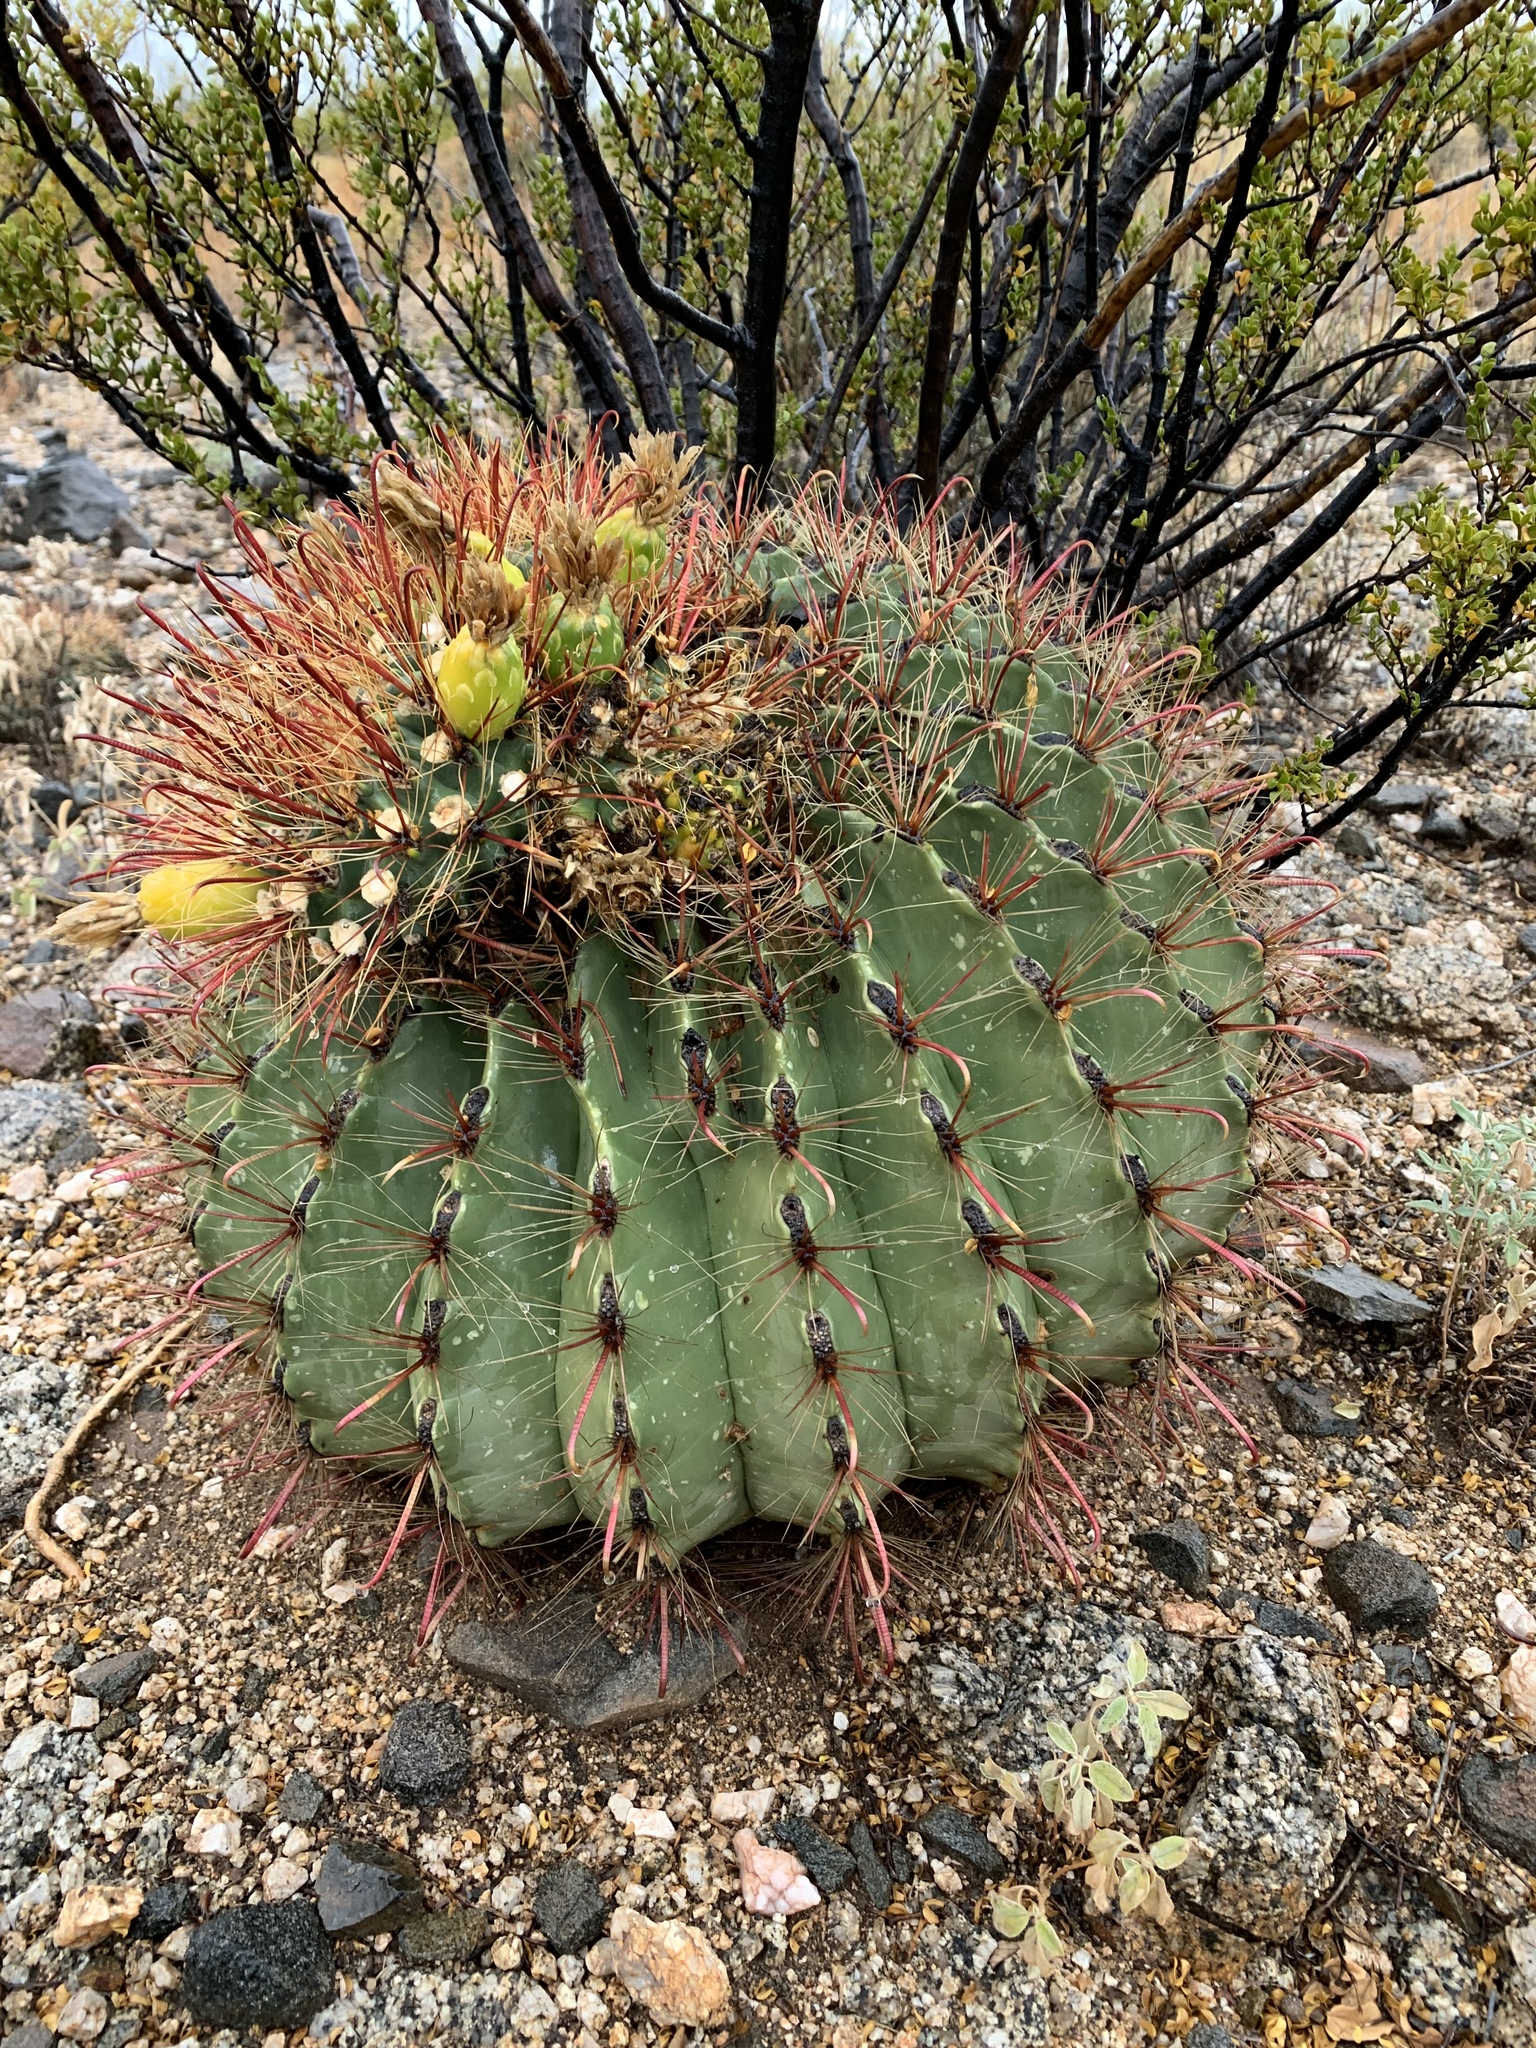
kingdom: Plantae
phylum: Tracheophyta
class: Magnoliopsida
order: Caryophyllales
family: Cactaceae
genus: Ferocactus
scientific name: Ferocactus wislizeni
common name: Candy barrel cactus
